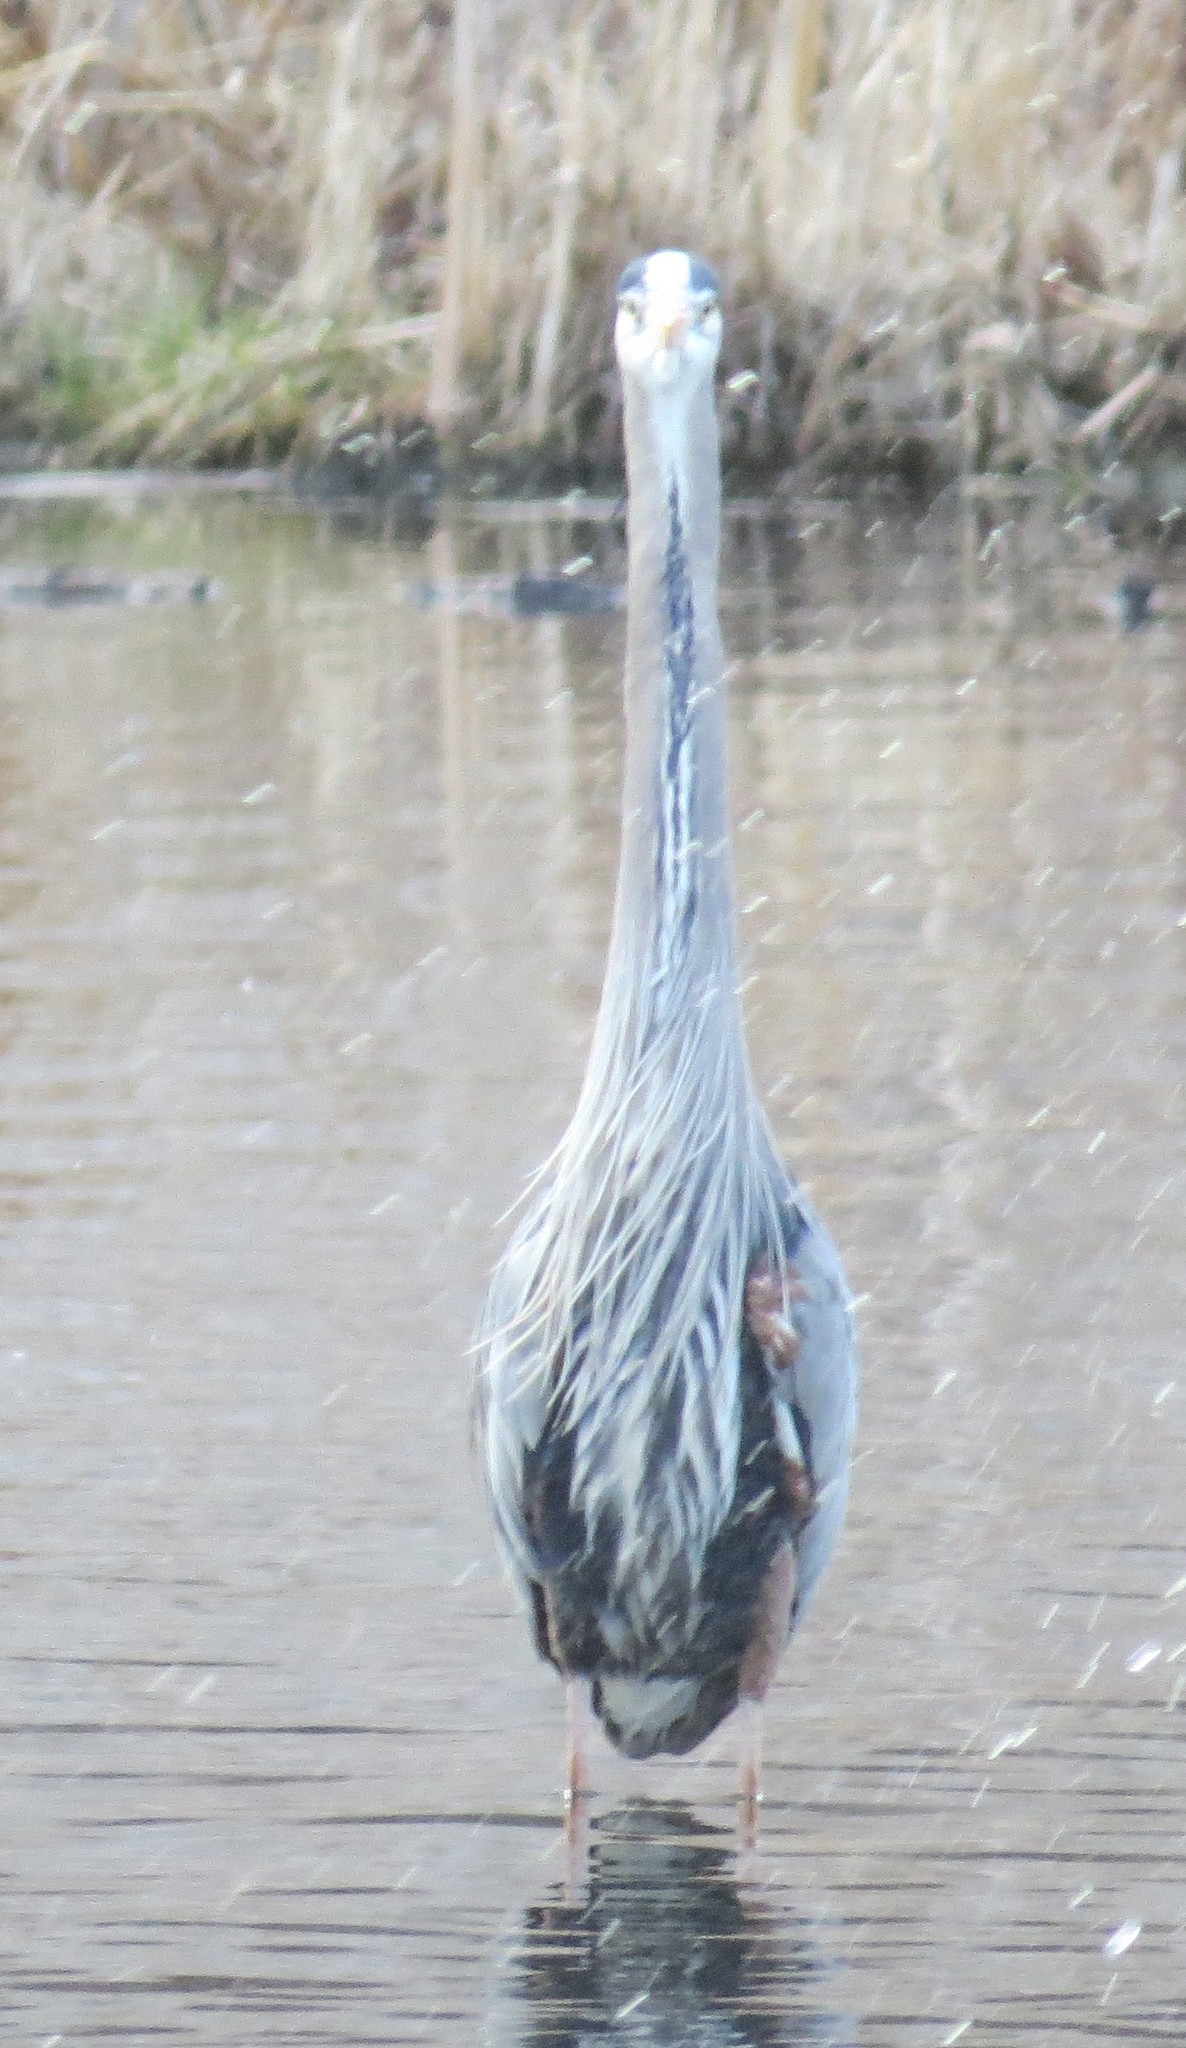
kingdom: Animalia
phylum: Chordata
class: Aves
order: Pelecaniformes
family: Ardeidae
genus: Ardea
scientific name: Ardea herodias
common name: Great blue heron
